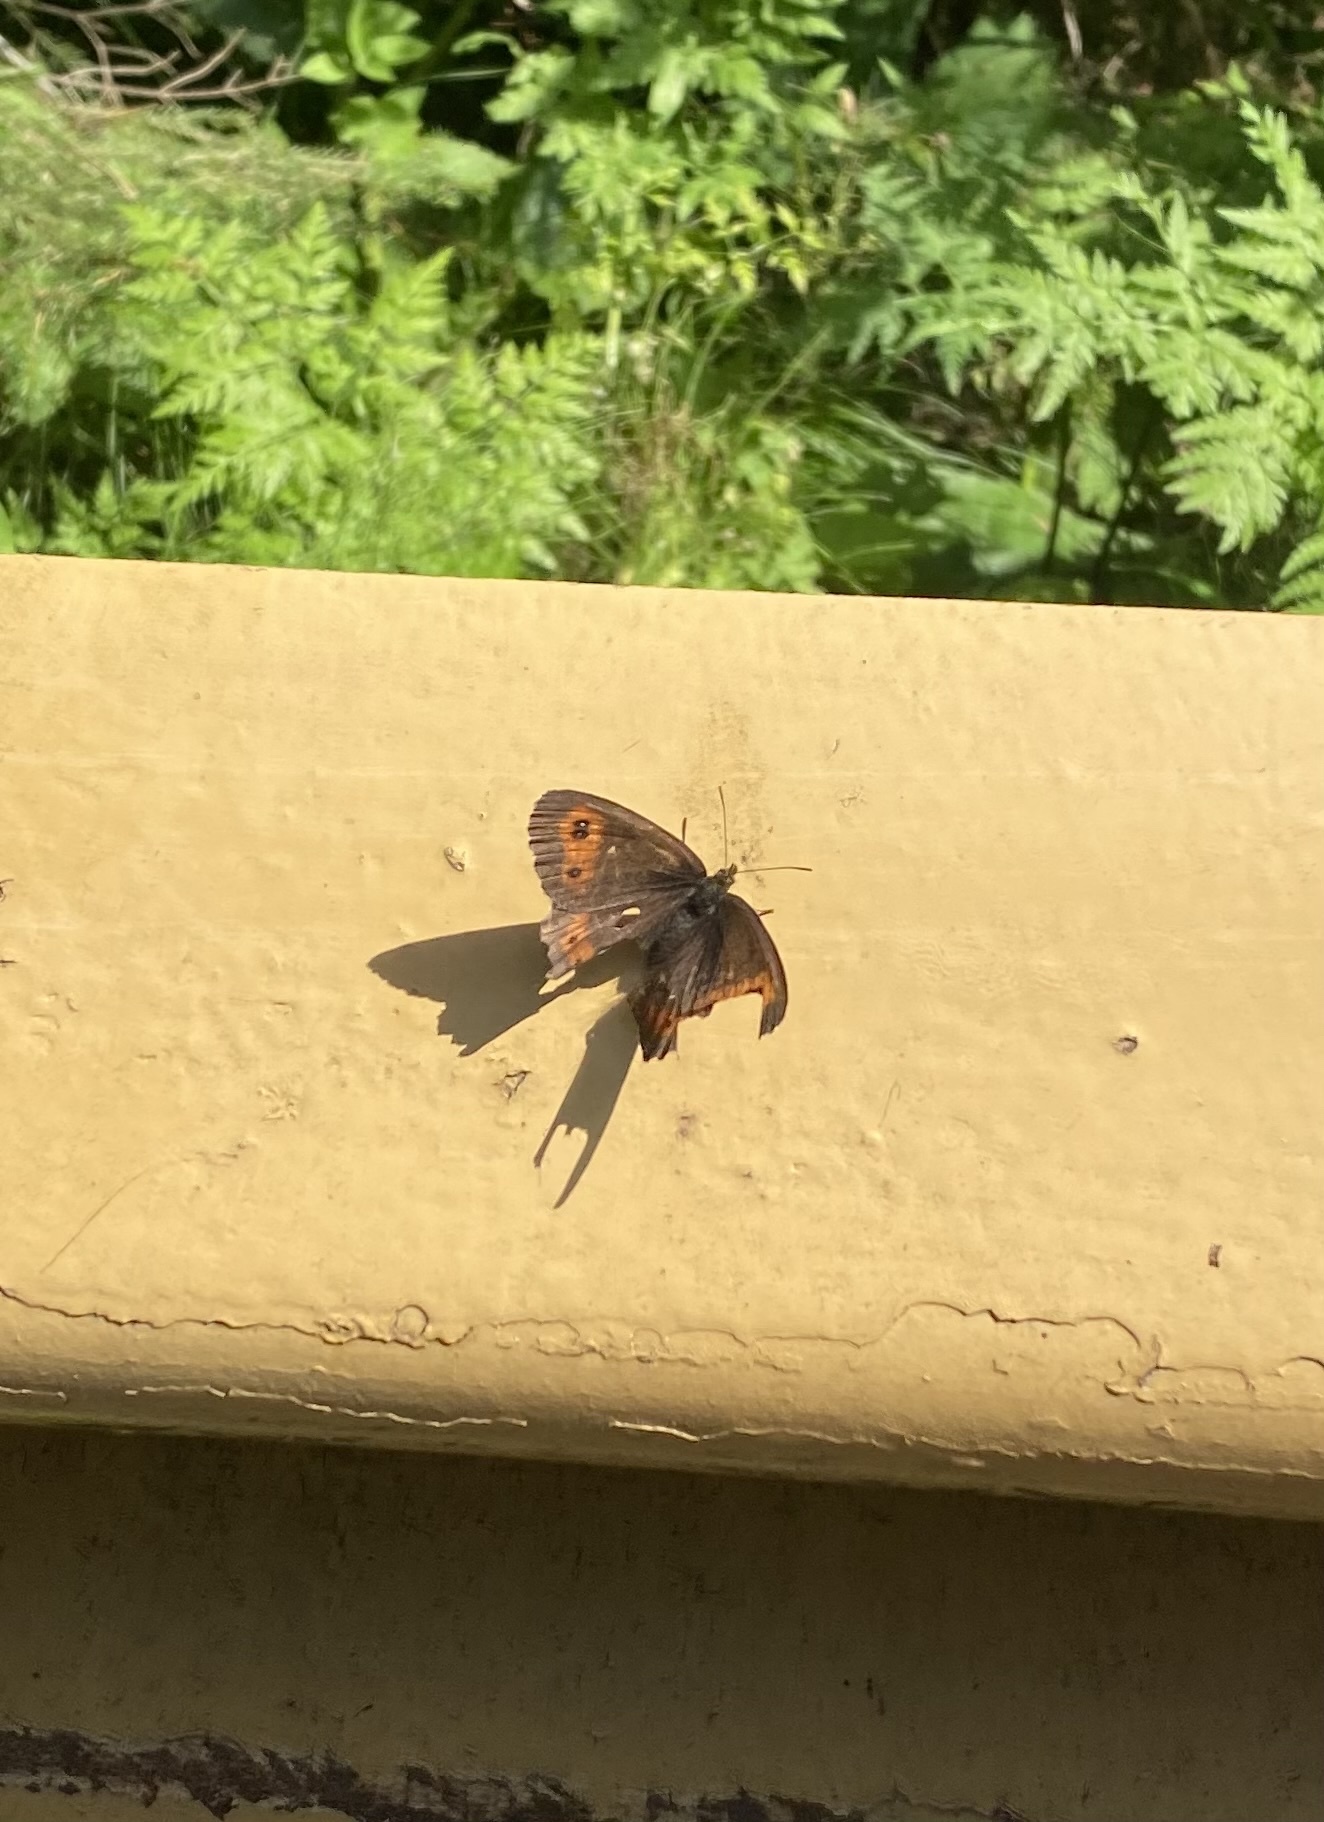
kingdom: Animalia
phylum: Arthropoda
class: Insecta
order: Lepidoptera
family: Nymphalidae
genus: Erebia
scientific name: Erebia ligea
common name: Arran brown
